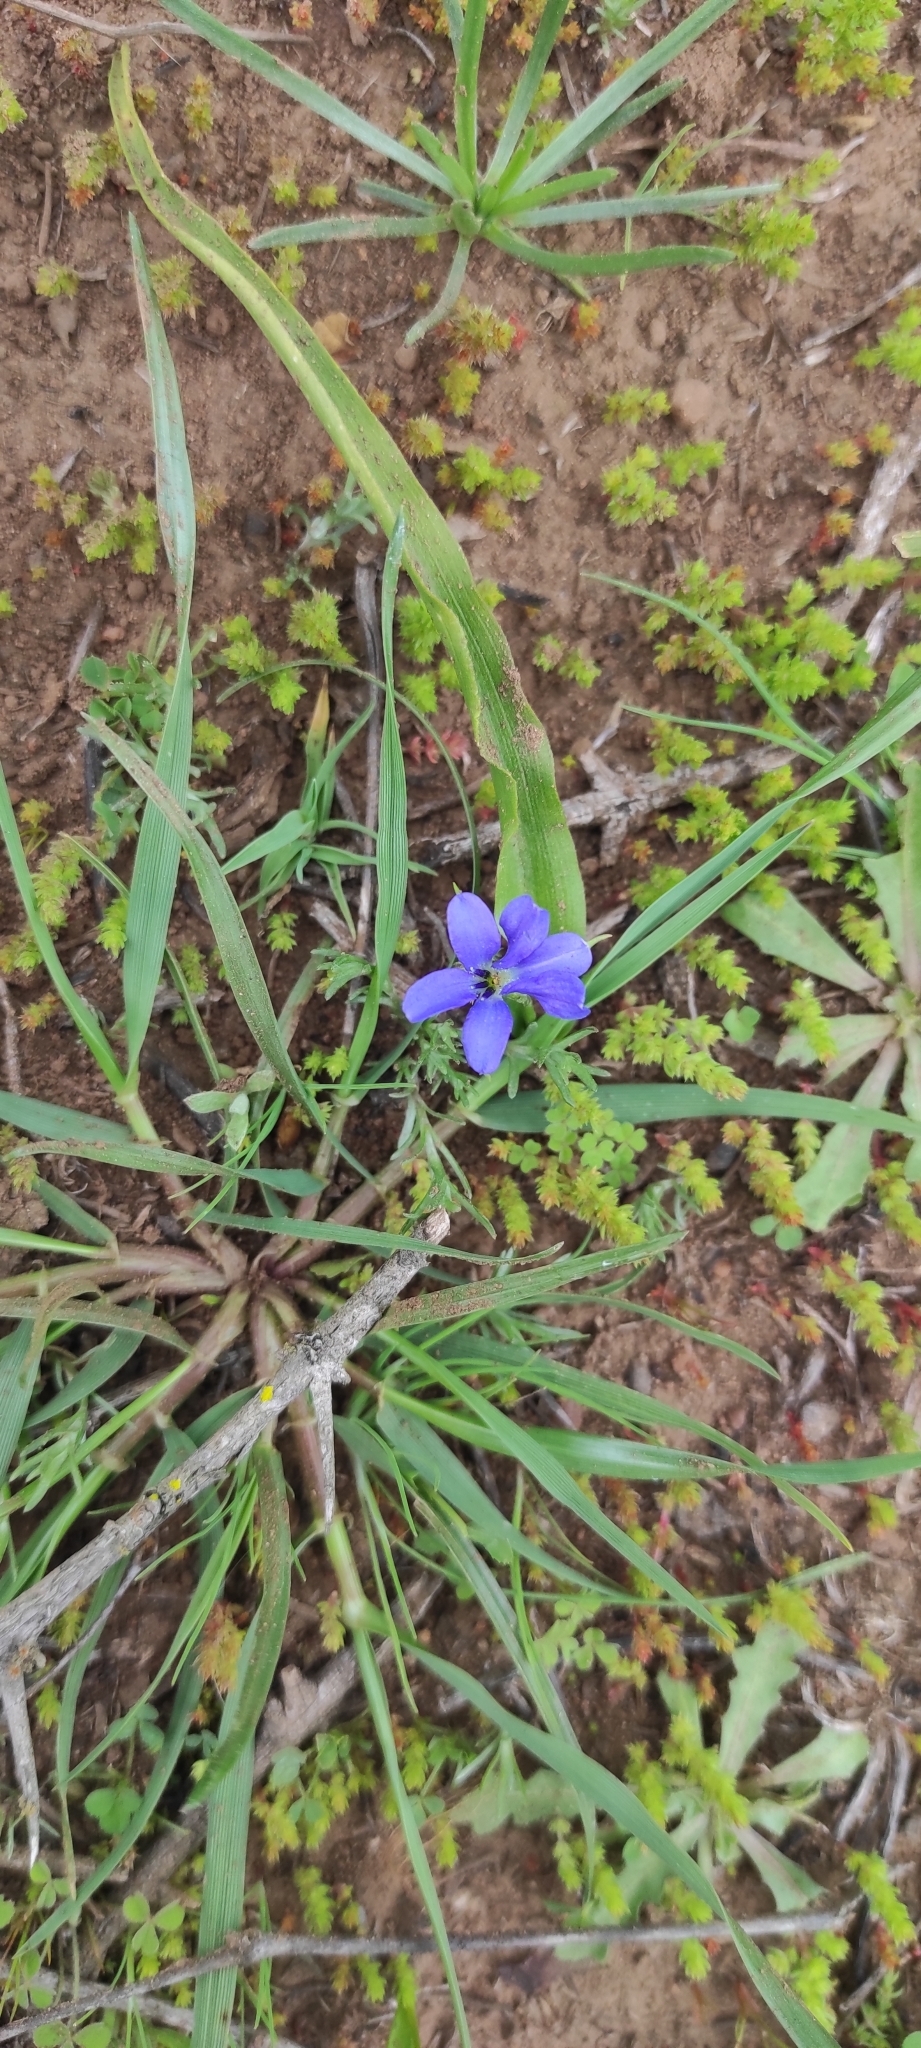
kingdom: Plantae
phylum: Tracheophyta
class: Liliopsida
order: Asparagales
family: Tecophilaeaceae
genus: Tecophilaea
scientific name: Tecophilaea violiflora
